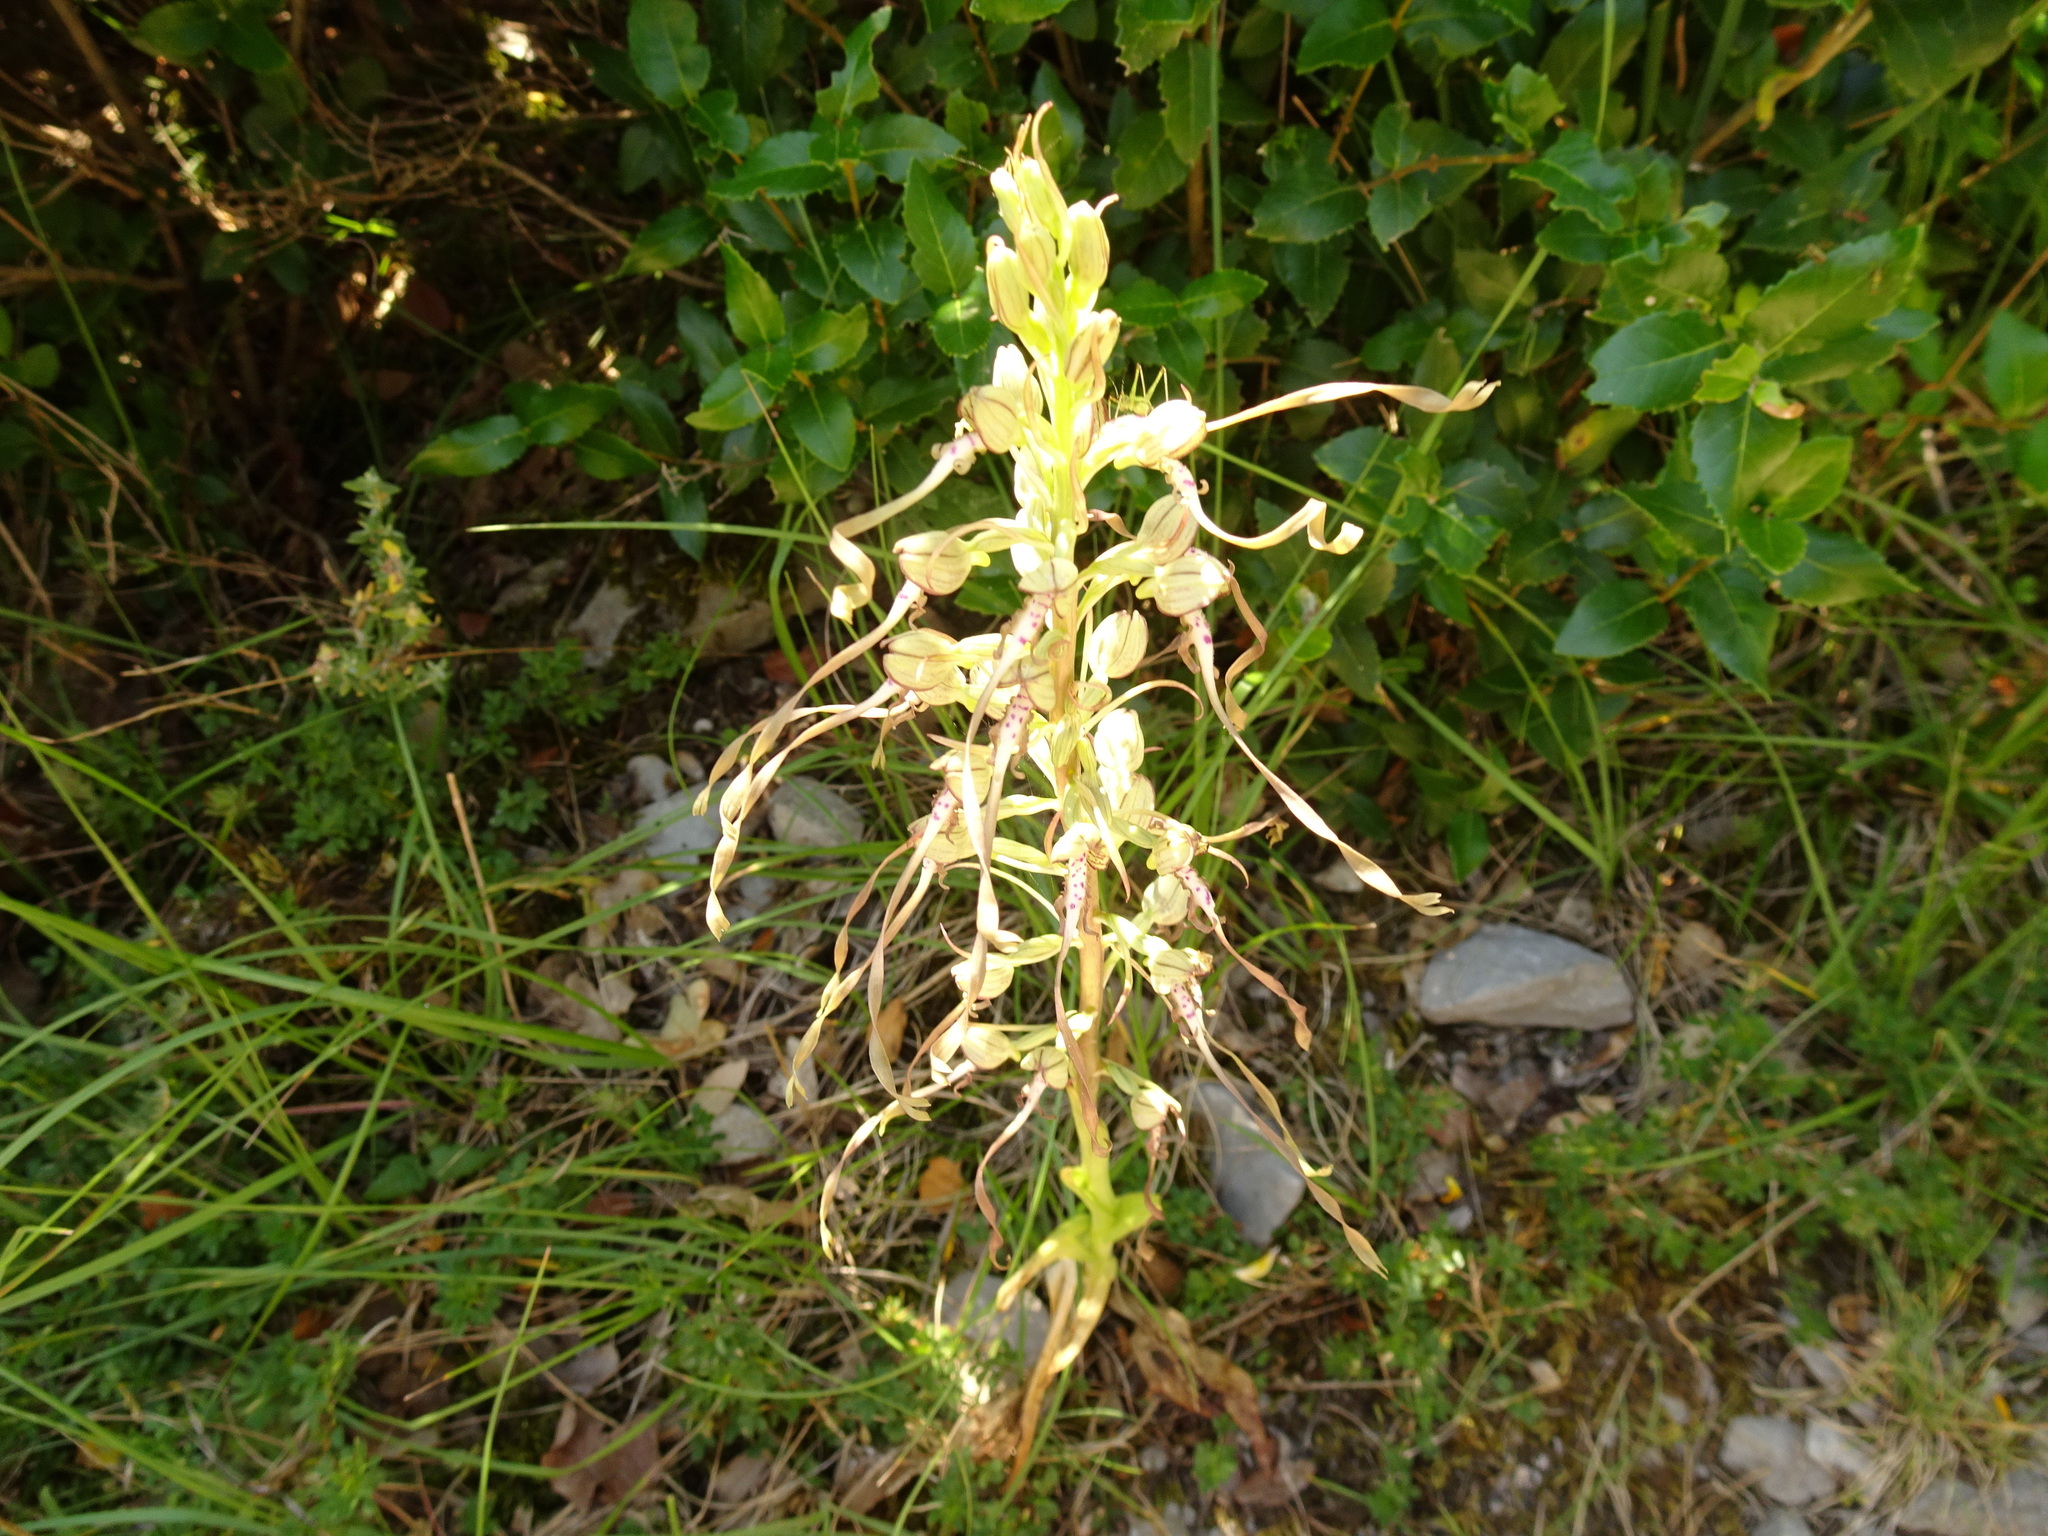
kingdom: Plantae
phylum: Tracheophyta
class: Liliopsida
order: Asparagales
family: Orchidaceae
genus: Himantoglossum
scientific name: Himantoglossum hircinum
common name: Lizard orchid
